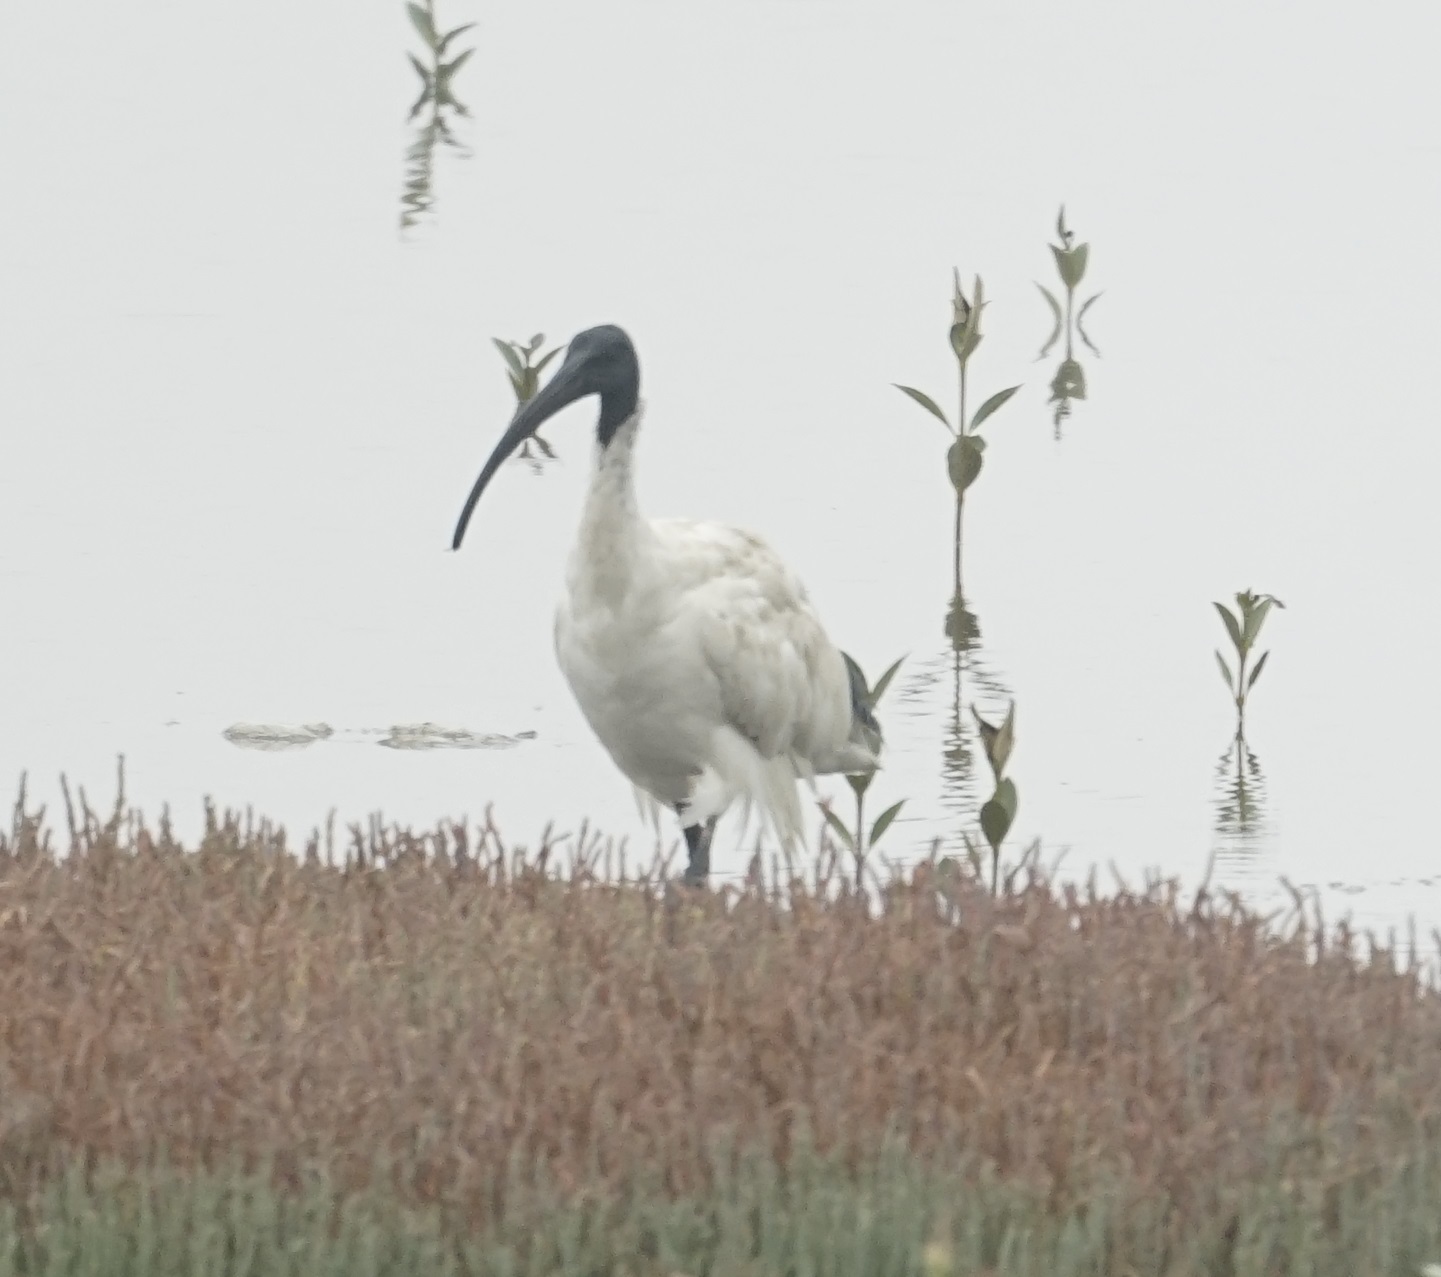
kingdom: Animalia
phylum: Chordata
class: Aves
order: Pelecaniformes
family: Threskiornithidae
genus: Threskiornis
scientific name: Threskiornis molucca
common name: Australian white ibis
